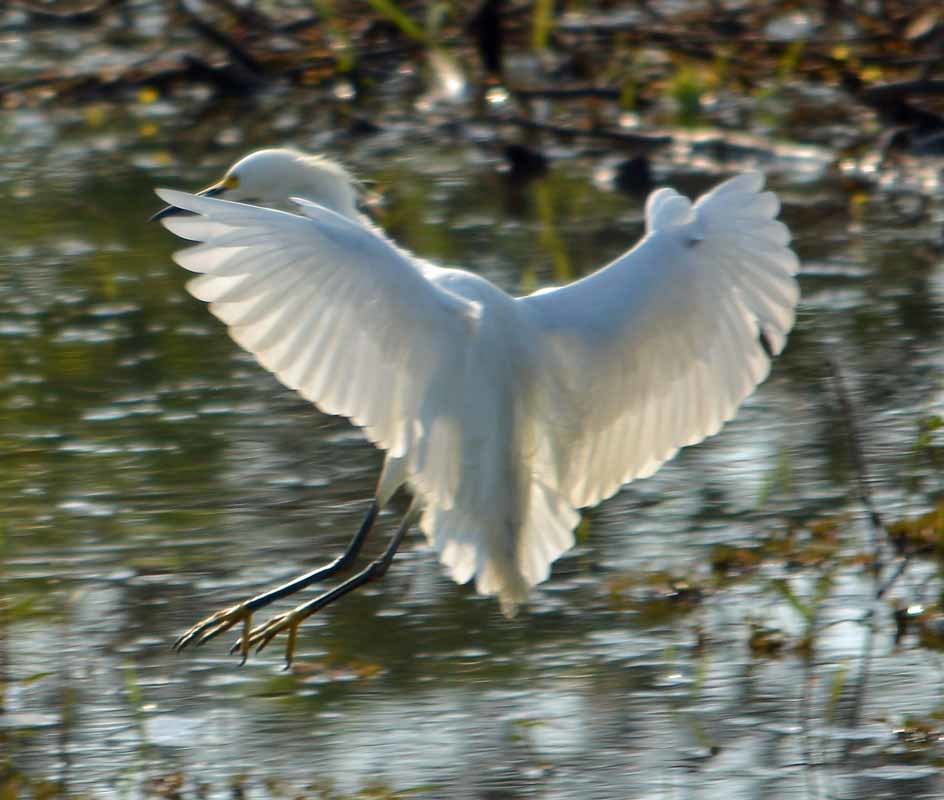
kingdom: Animalia
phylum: Chordata
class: Aves
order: Pelecaniformes
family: Ardeidae
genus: Egretta
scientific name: Egretta thula
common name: Snowy egret
